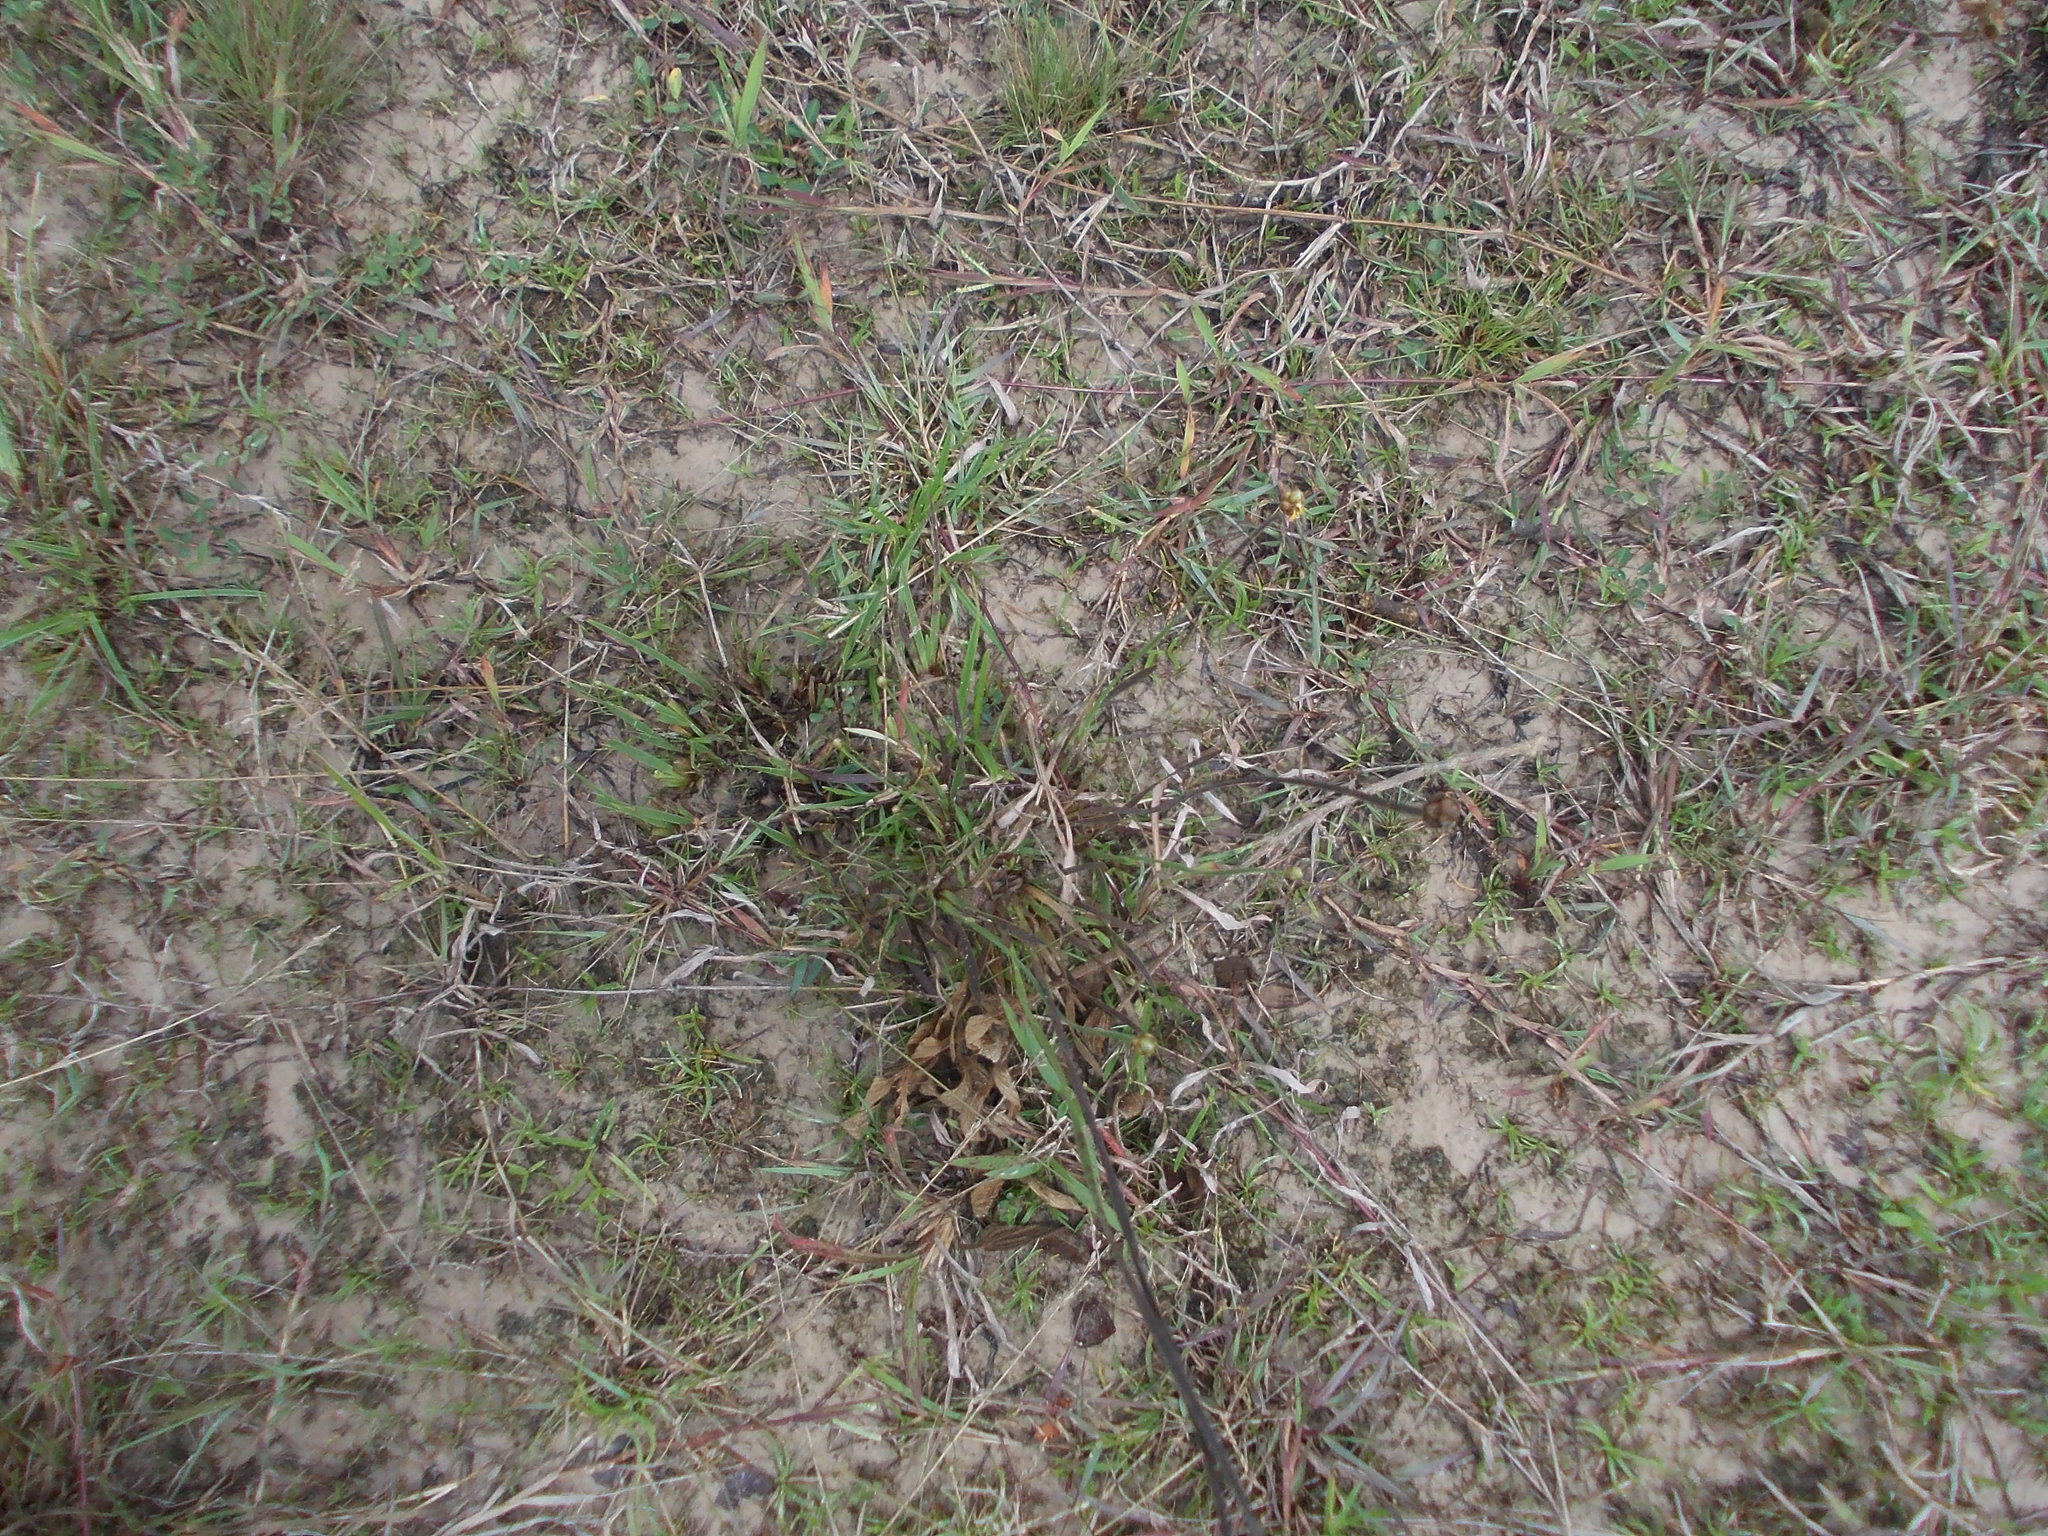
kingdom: Plantae
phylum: Tracheophyta
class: Liliopsida
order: Poales
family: Xyridaceae
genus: Xyris
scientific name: Xyris indica
